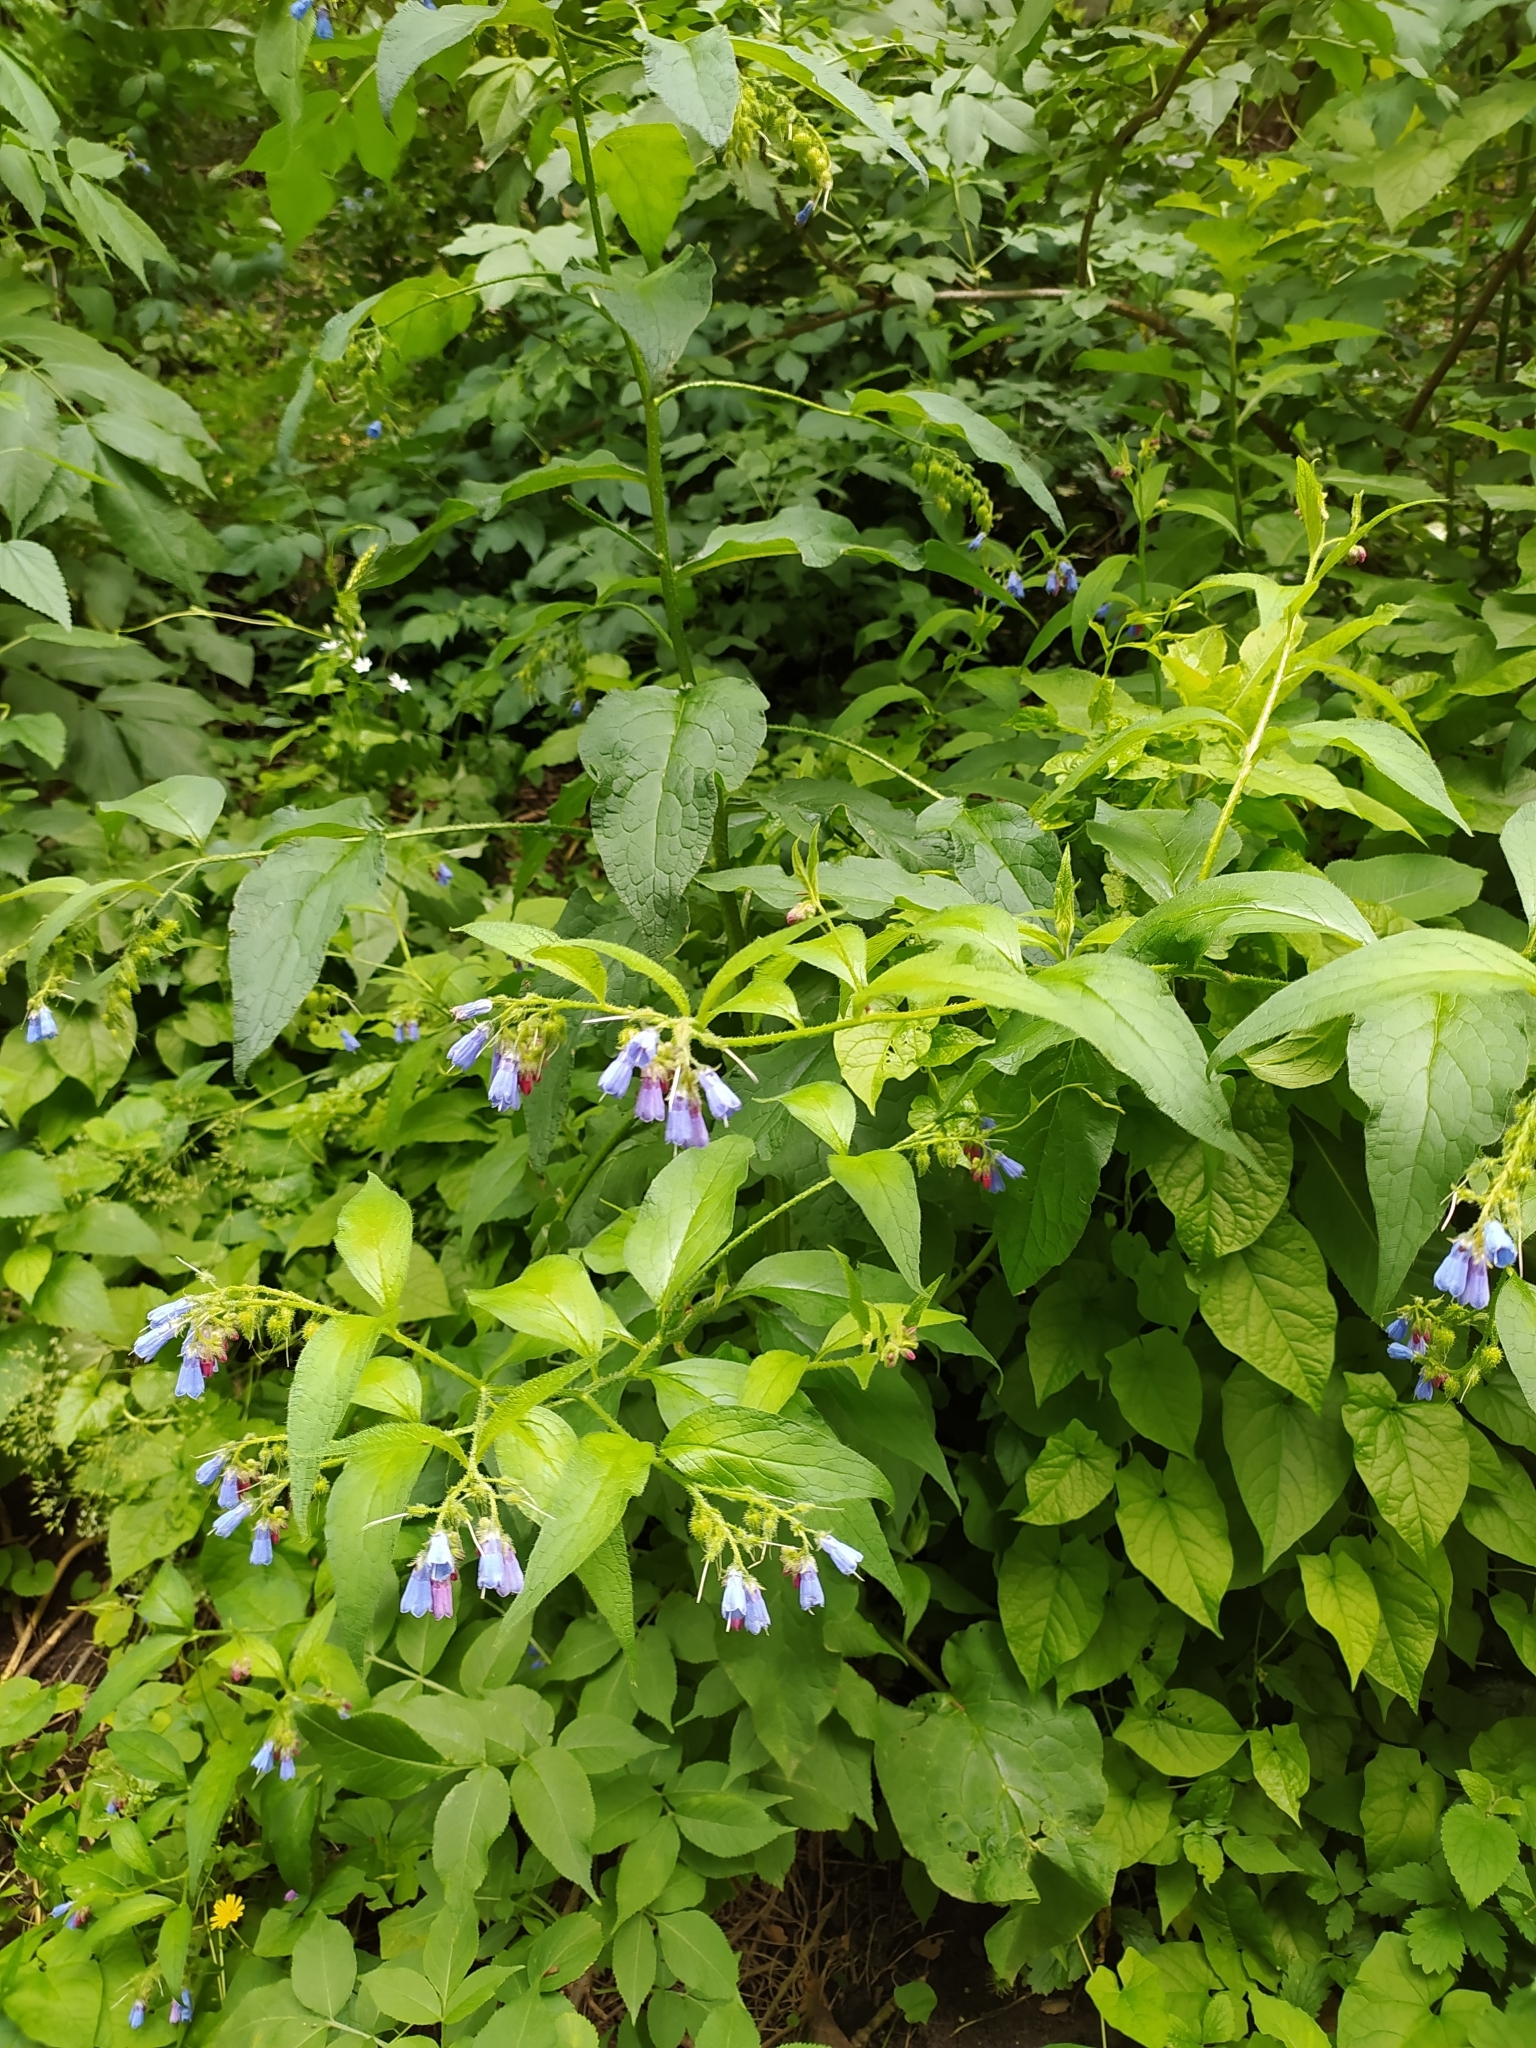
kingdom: Plantae
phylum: Tracheophyta
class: Magnoliopsida
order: Boraginales
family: Boraginaceae
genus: Symphytum
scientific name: Symphytum asperum
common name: Prickly comfrey
